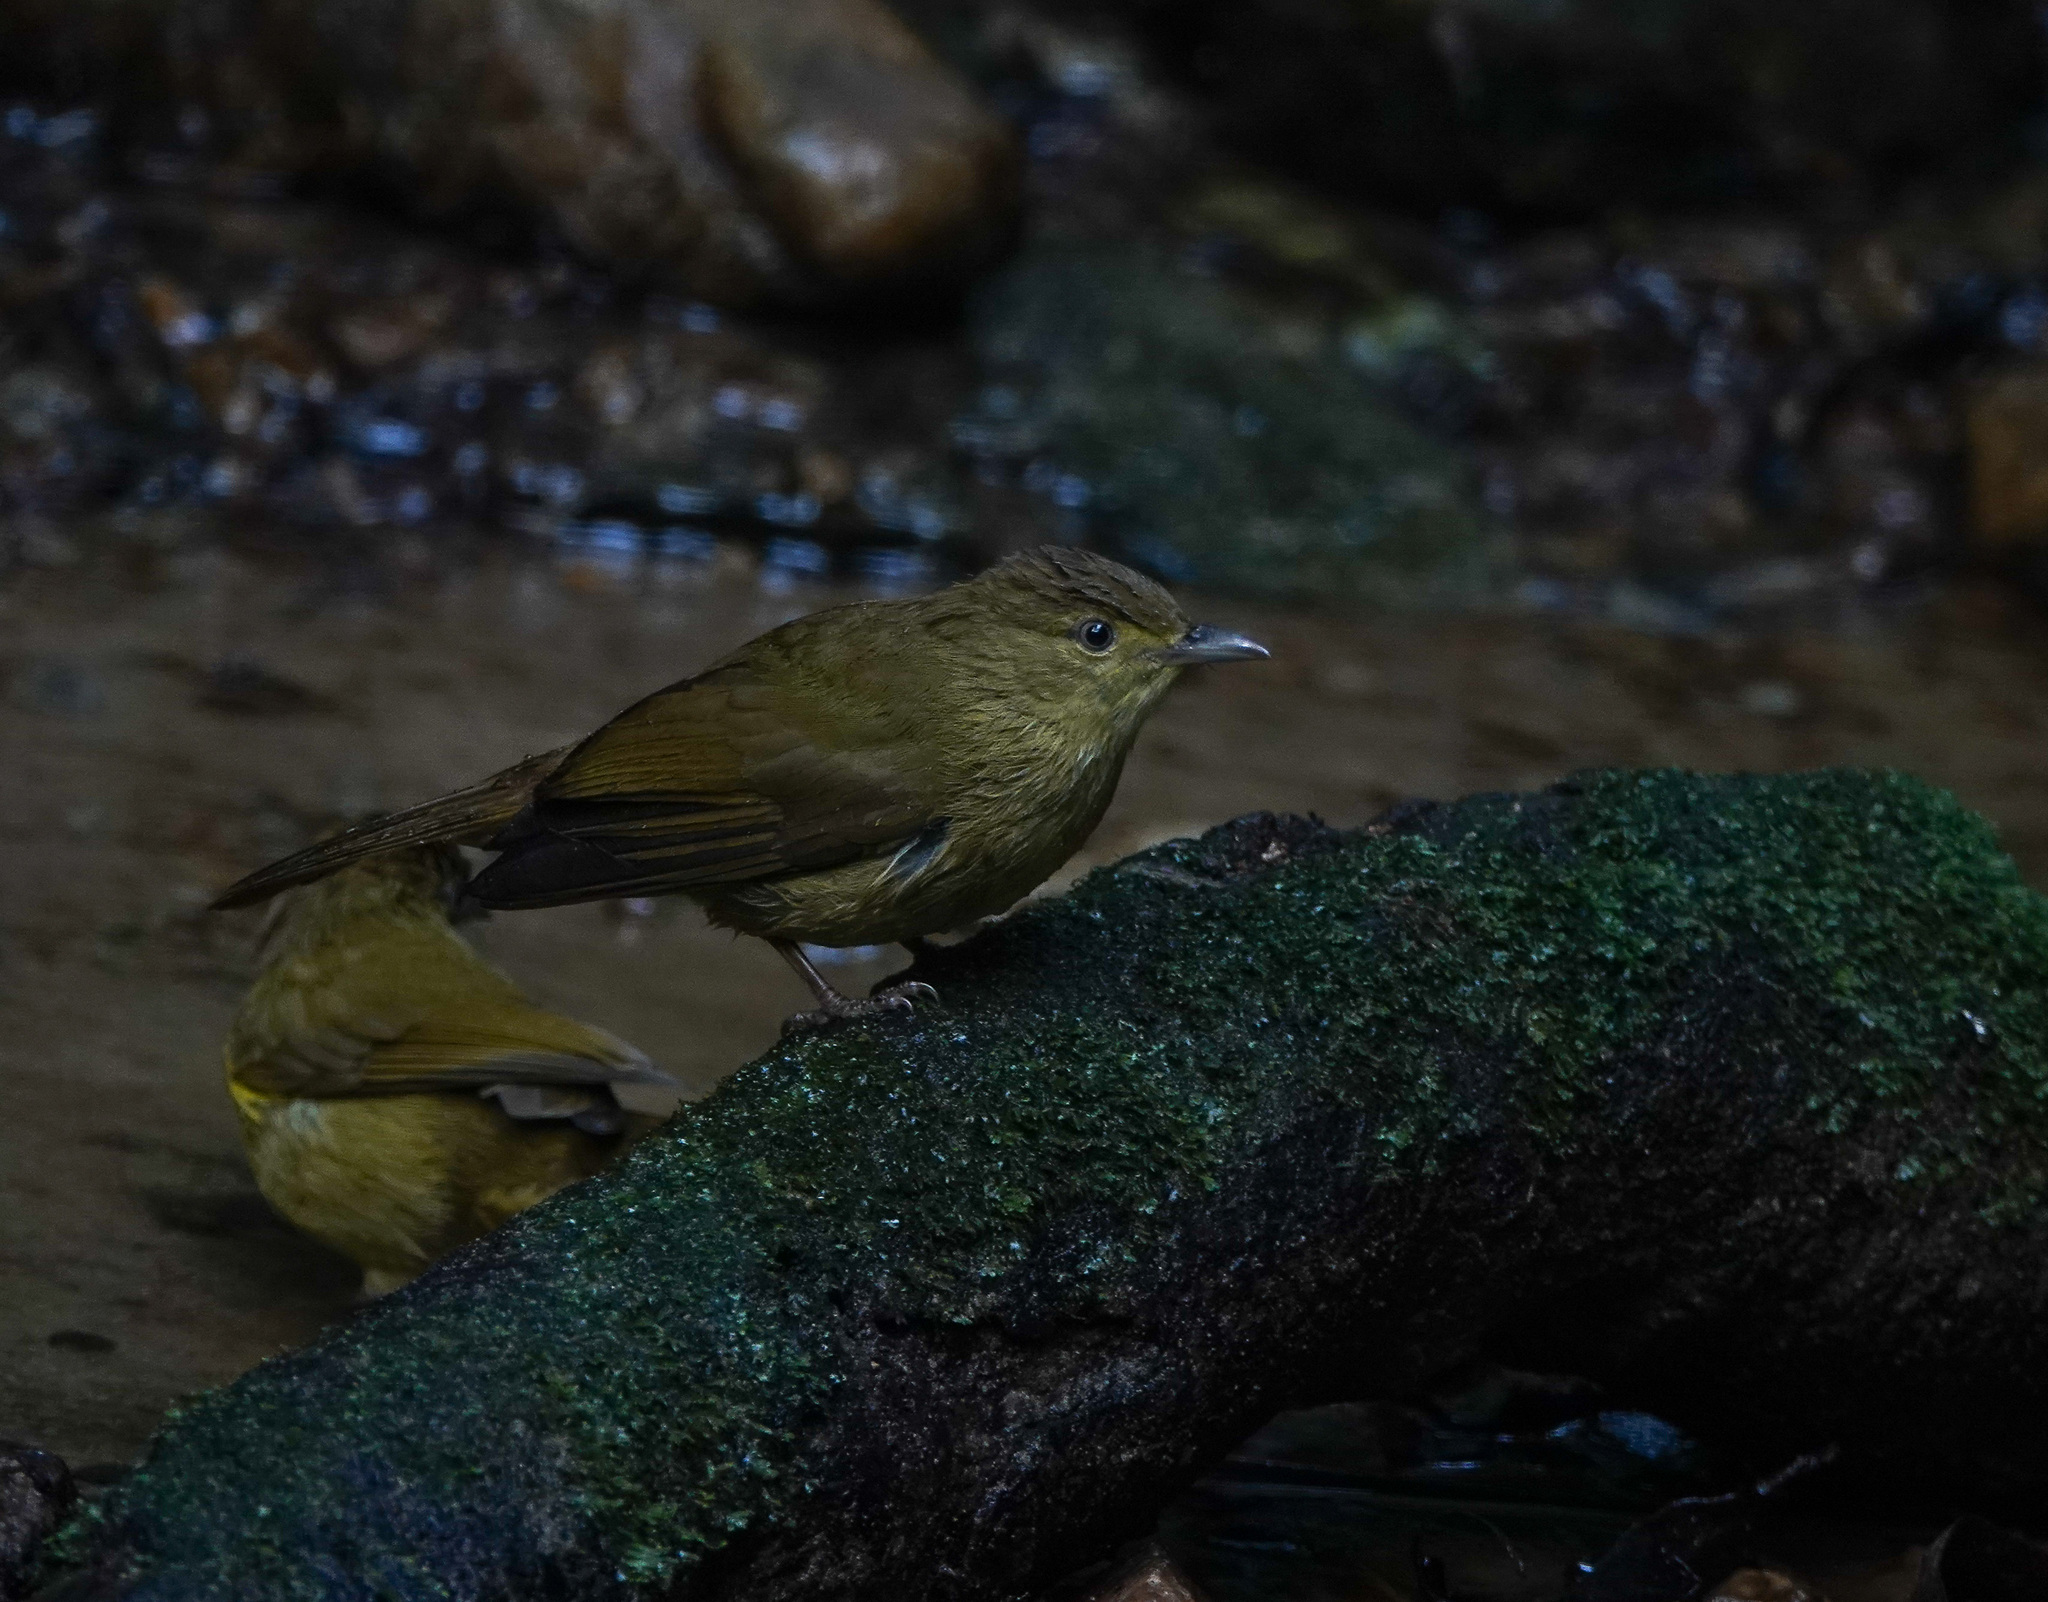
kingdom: Animalia
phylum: Chordata
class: Aves
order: Passeriformes
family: Pycnonotidae
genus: Iole
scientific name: Iole virescens
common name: Olive bulbul
